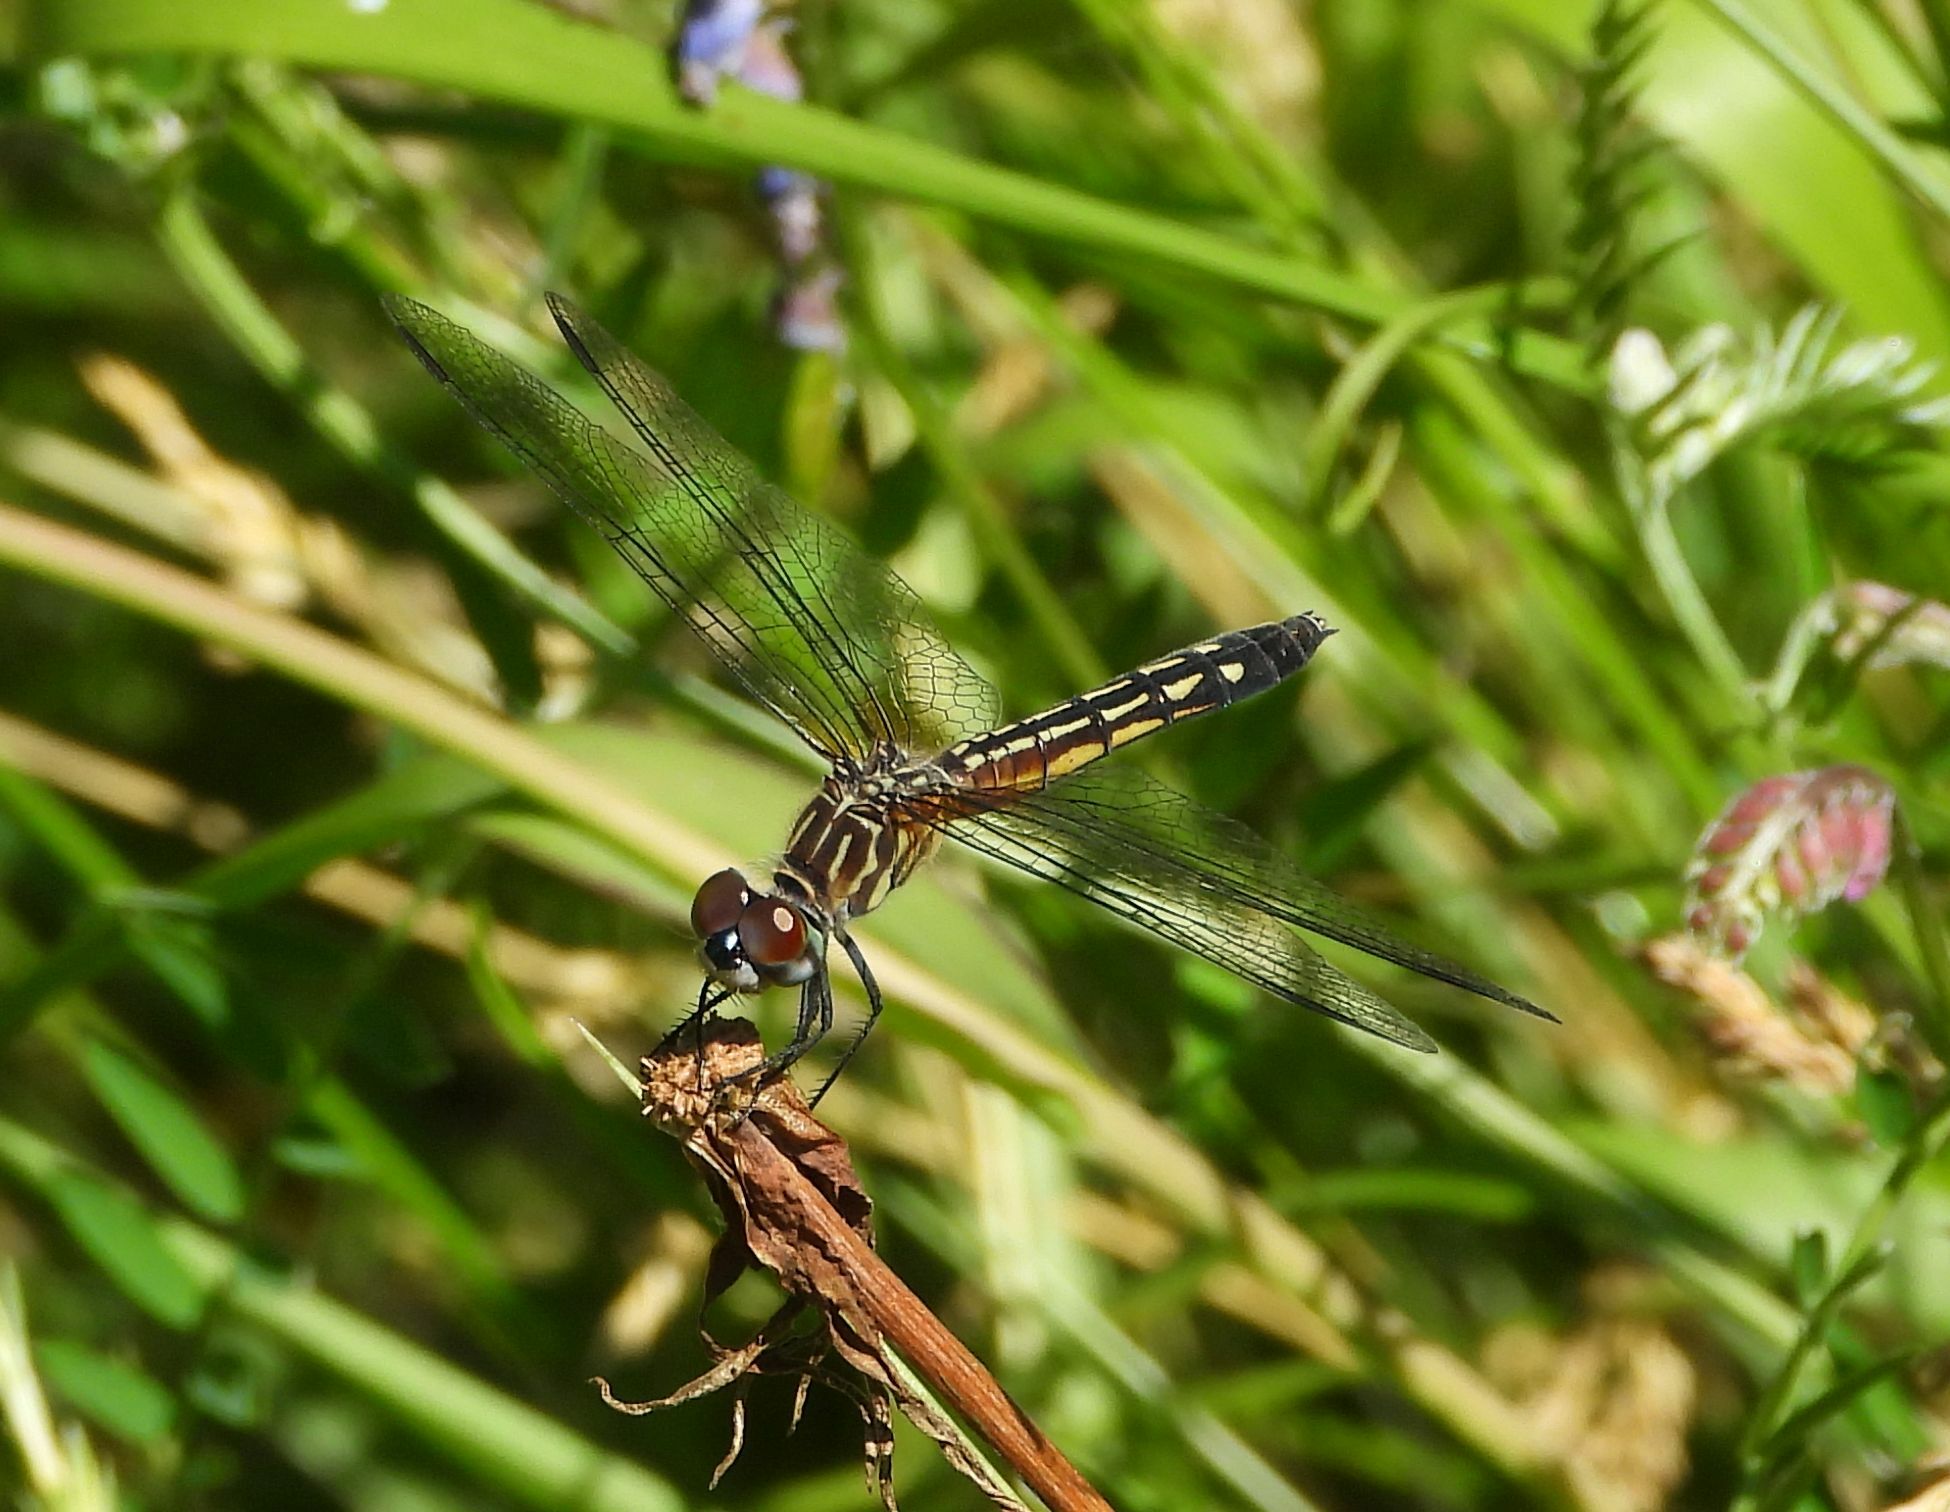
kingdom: Animalia
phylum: Arthropoda
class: Insecta
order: Odonata
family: Libellulidae
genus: Pachydiplax
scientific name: Pachydiplax longipennis
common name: Blue dasher
